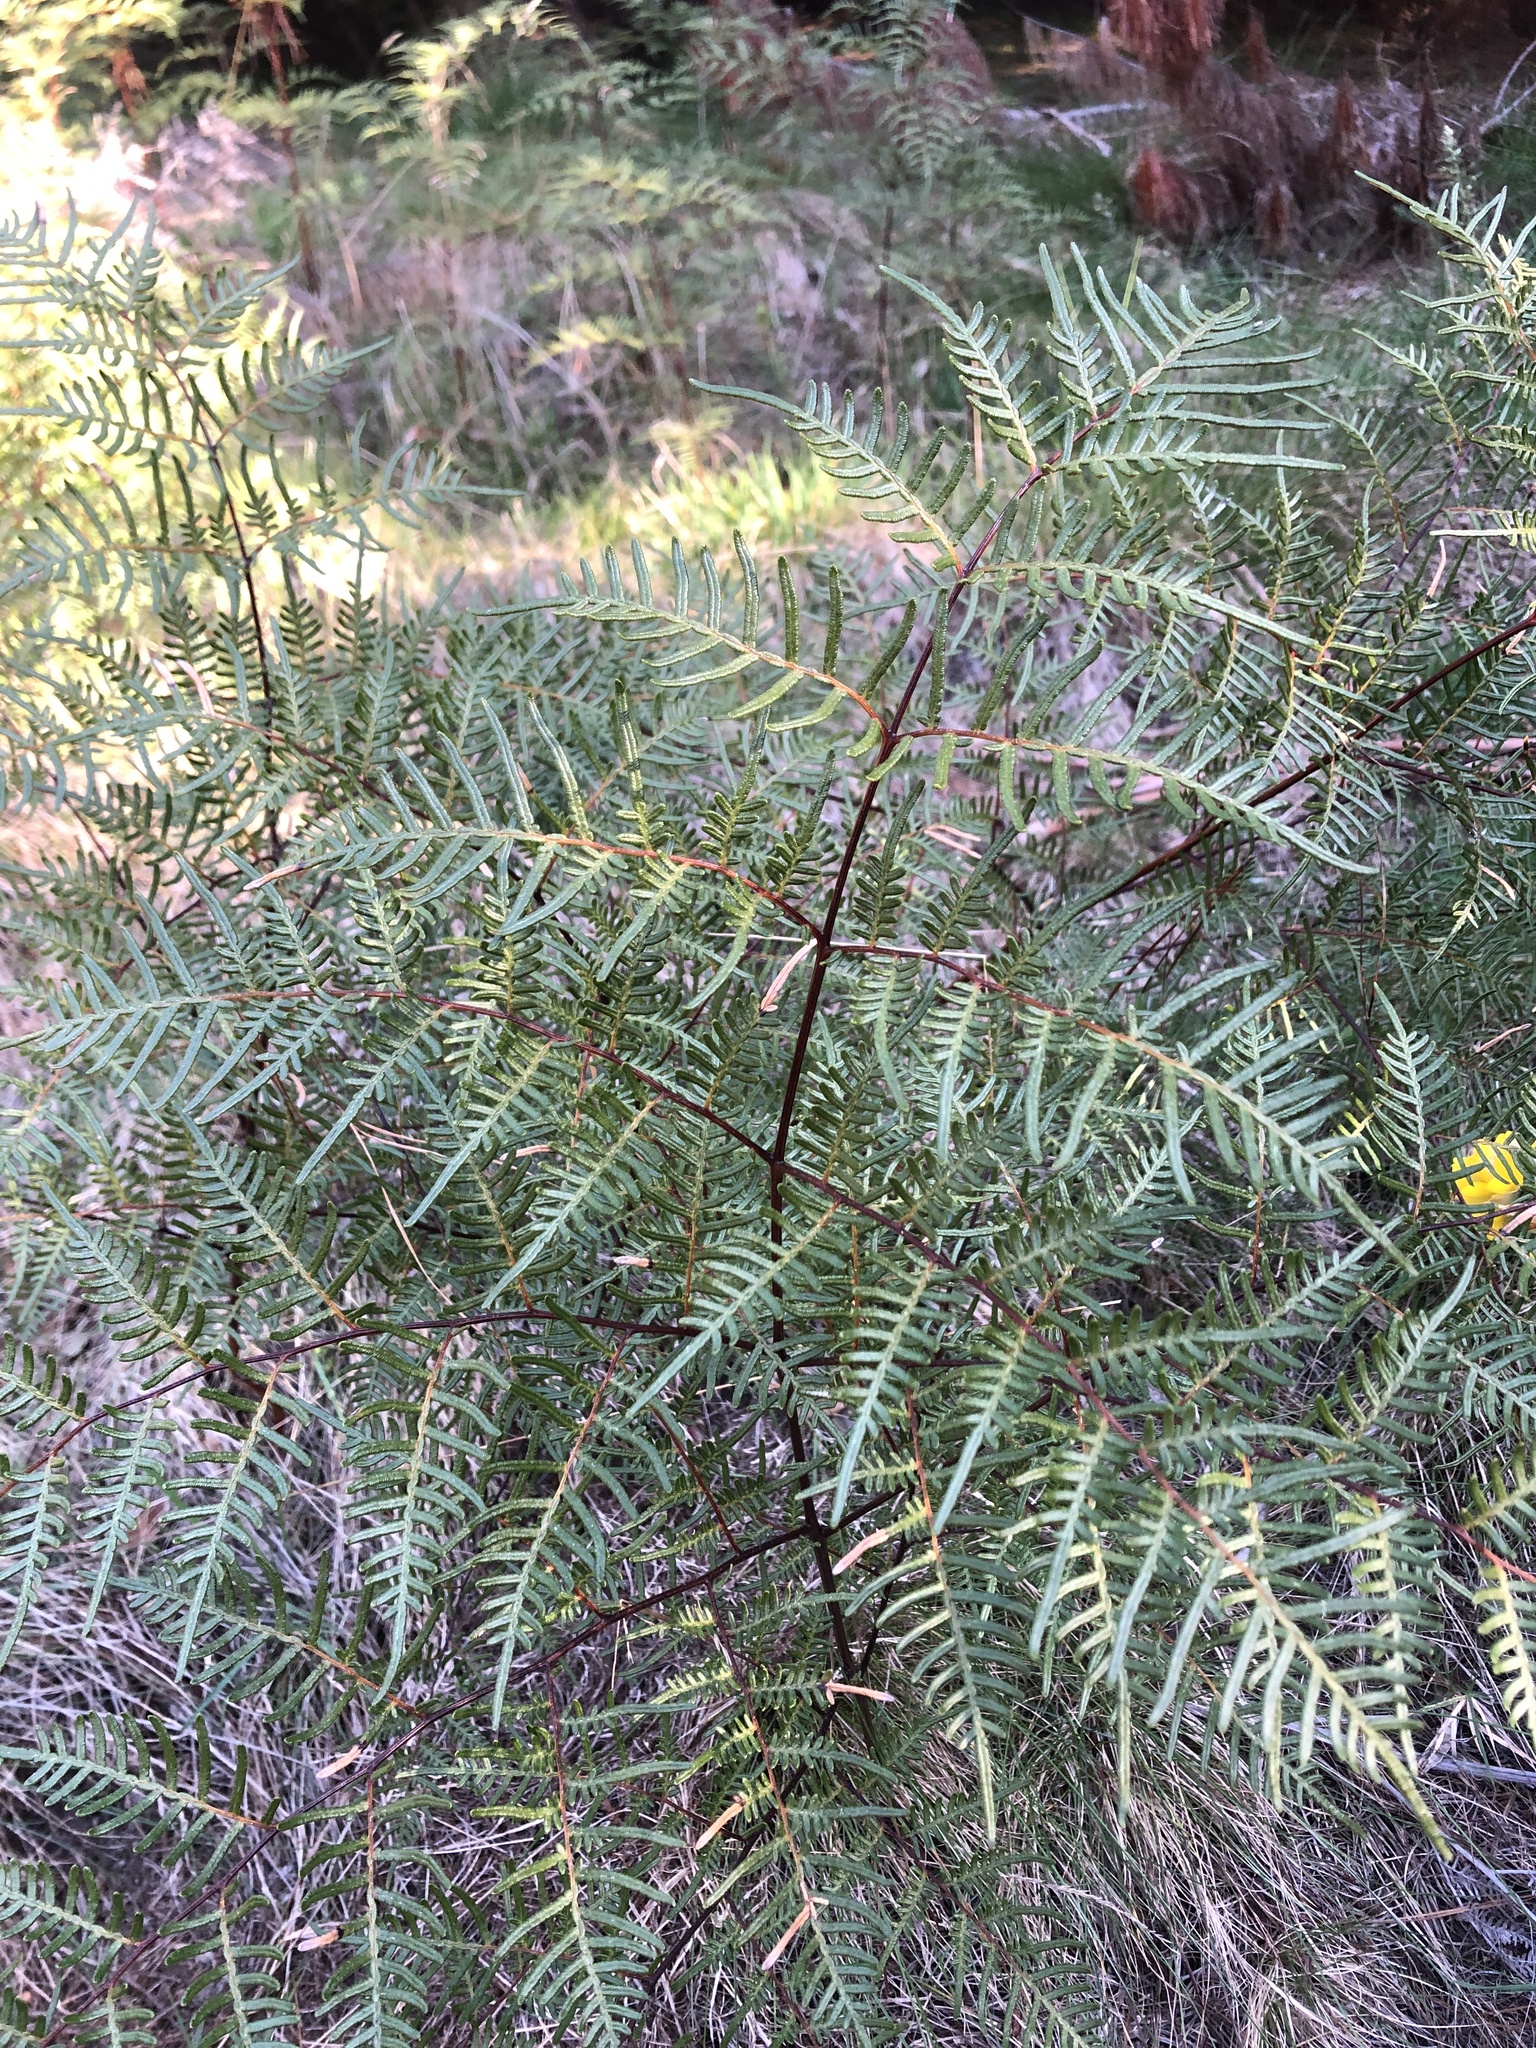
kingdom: Plantae
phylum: Tracheophyta
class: Polypodiopsida
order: Polypodiales
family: Dennstaedtiaceae
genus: Pteridium
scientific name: Pteridium esculentum
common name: Bracken fern
